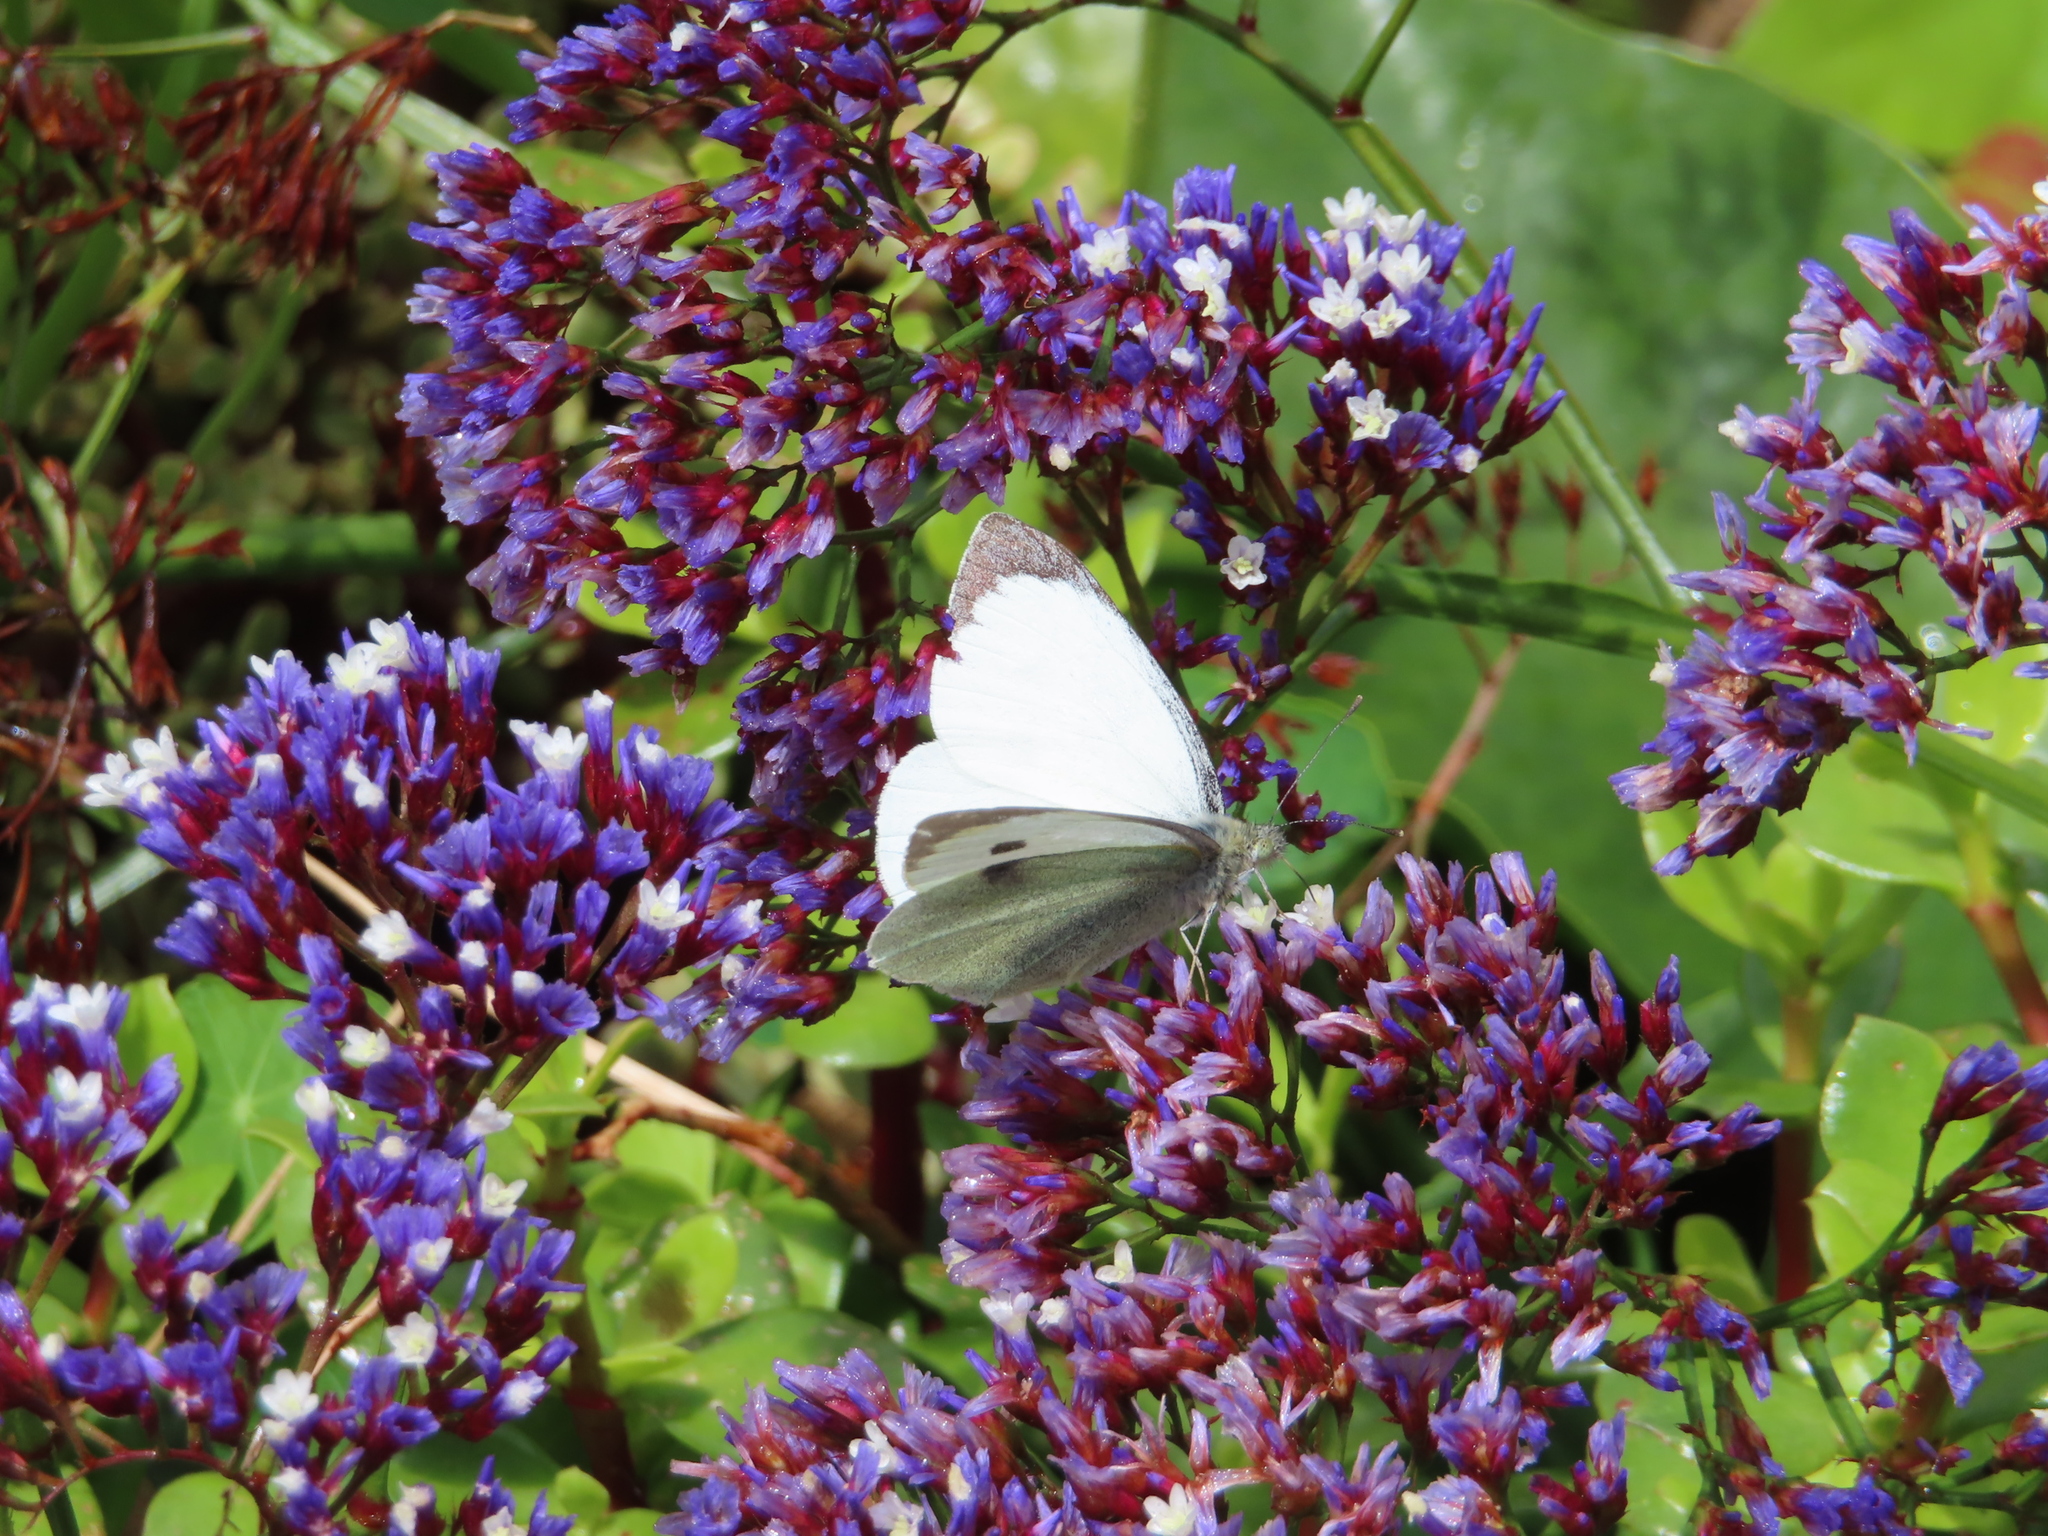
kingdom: Plantae
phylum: Tracheophyta
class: Magnoliopsida
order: Caryophyllales
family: Plumbaginaceae
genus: Limonium
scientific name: Limonium perezii
